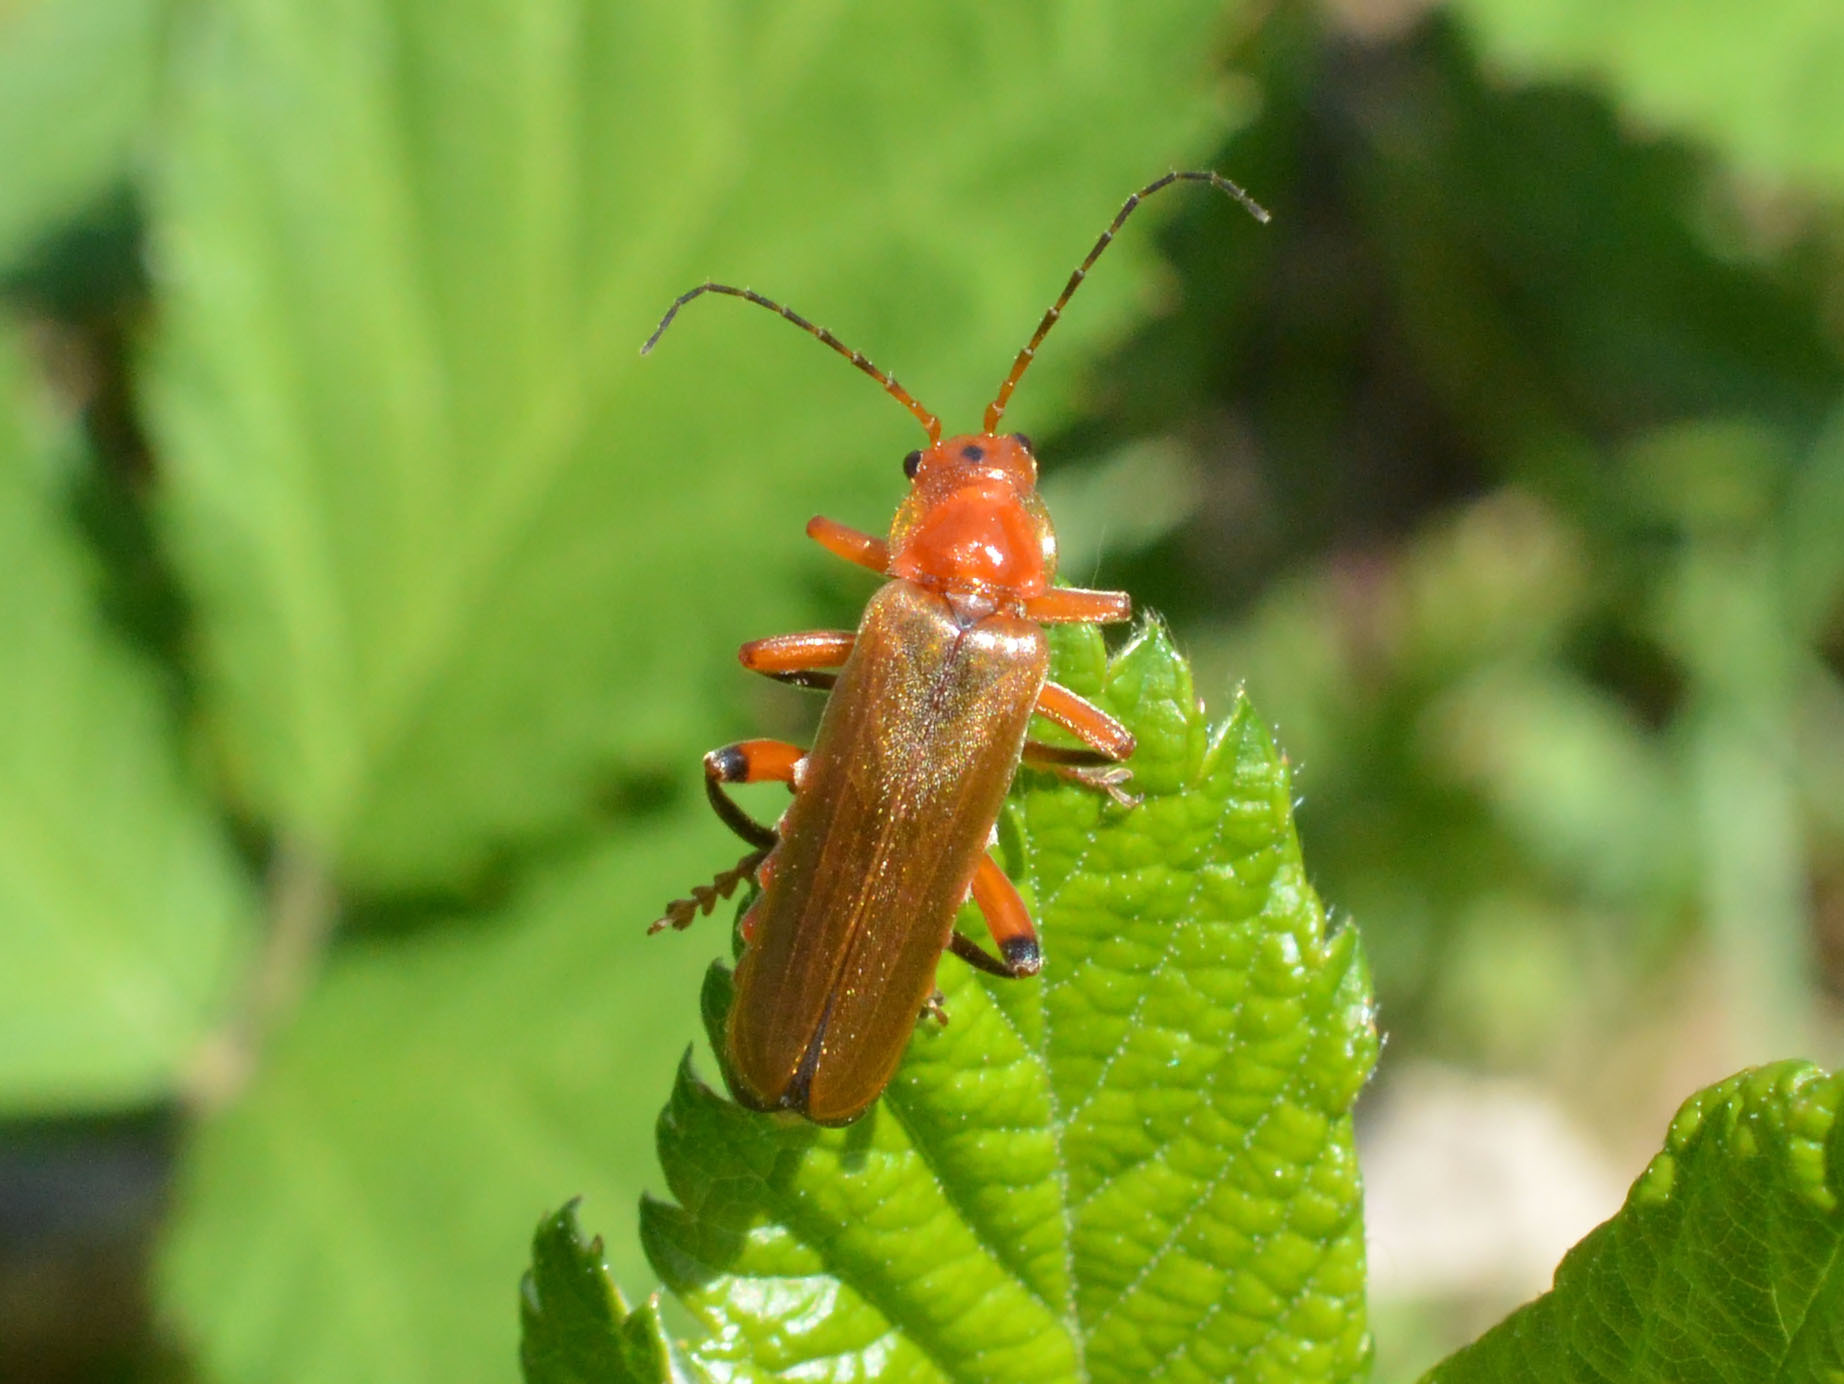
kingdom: Animalia
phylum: Arthropoda
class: Insecta
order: Coleoptera
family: Cantharidae
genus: Cantharis
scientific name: Cantharis livida
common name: Livid soldier beetle
